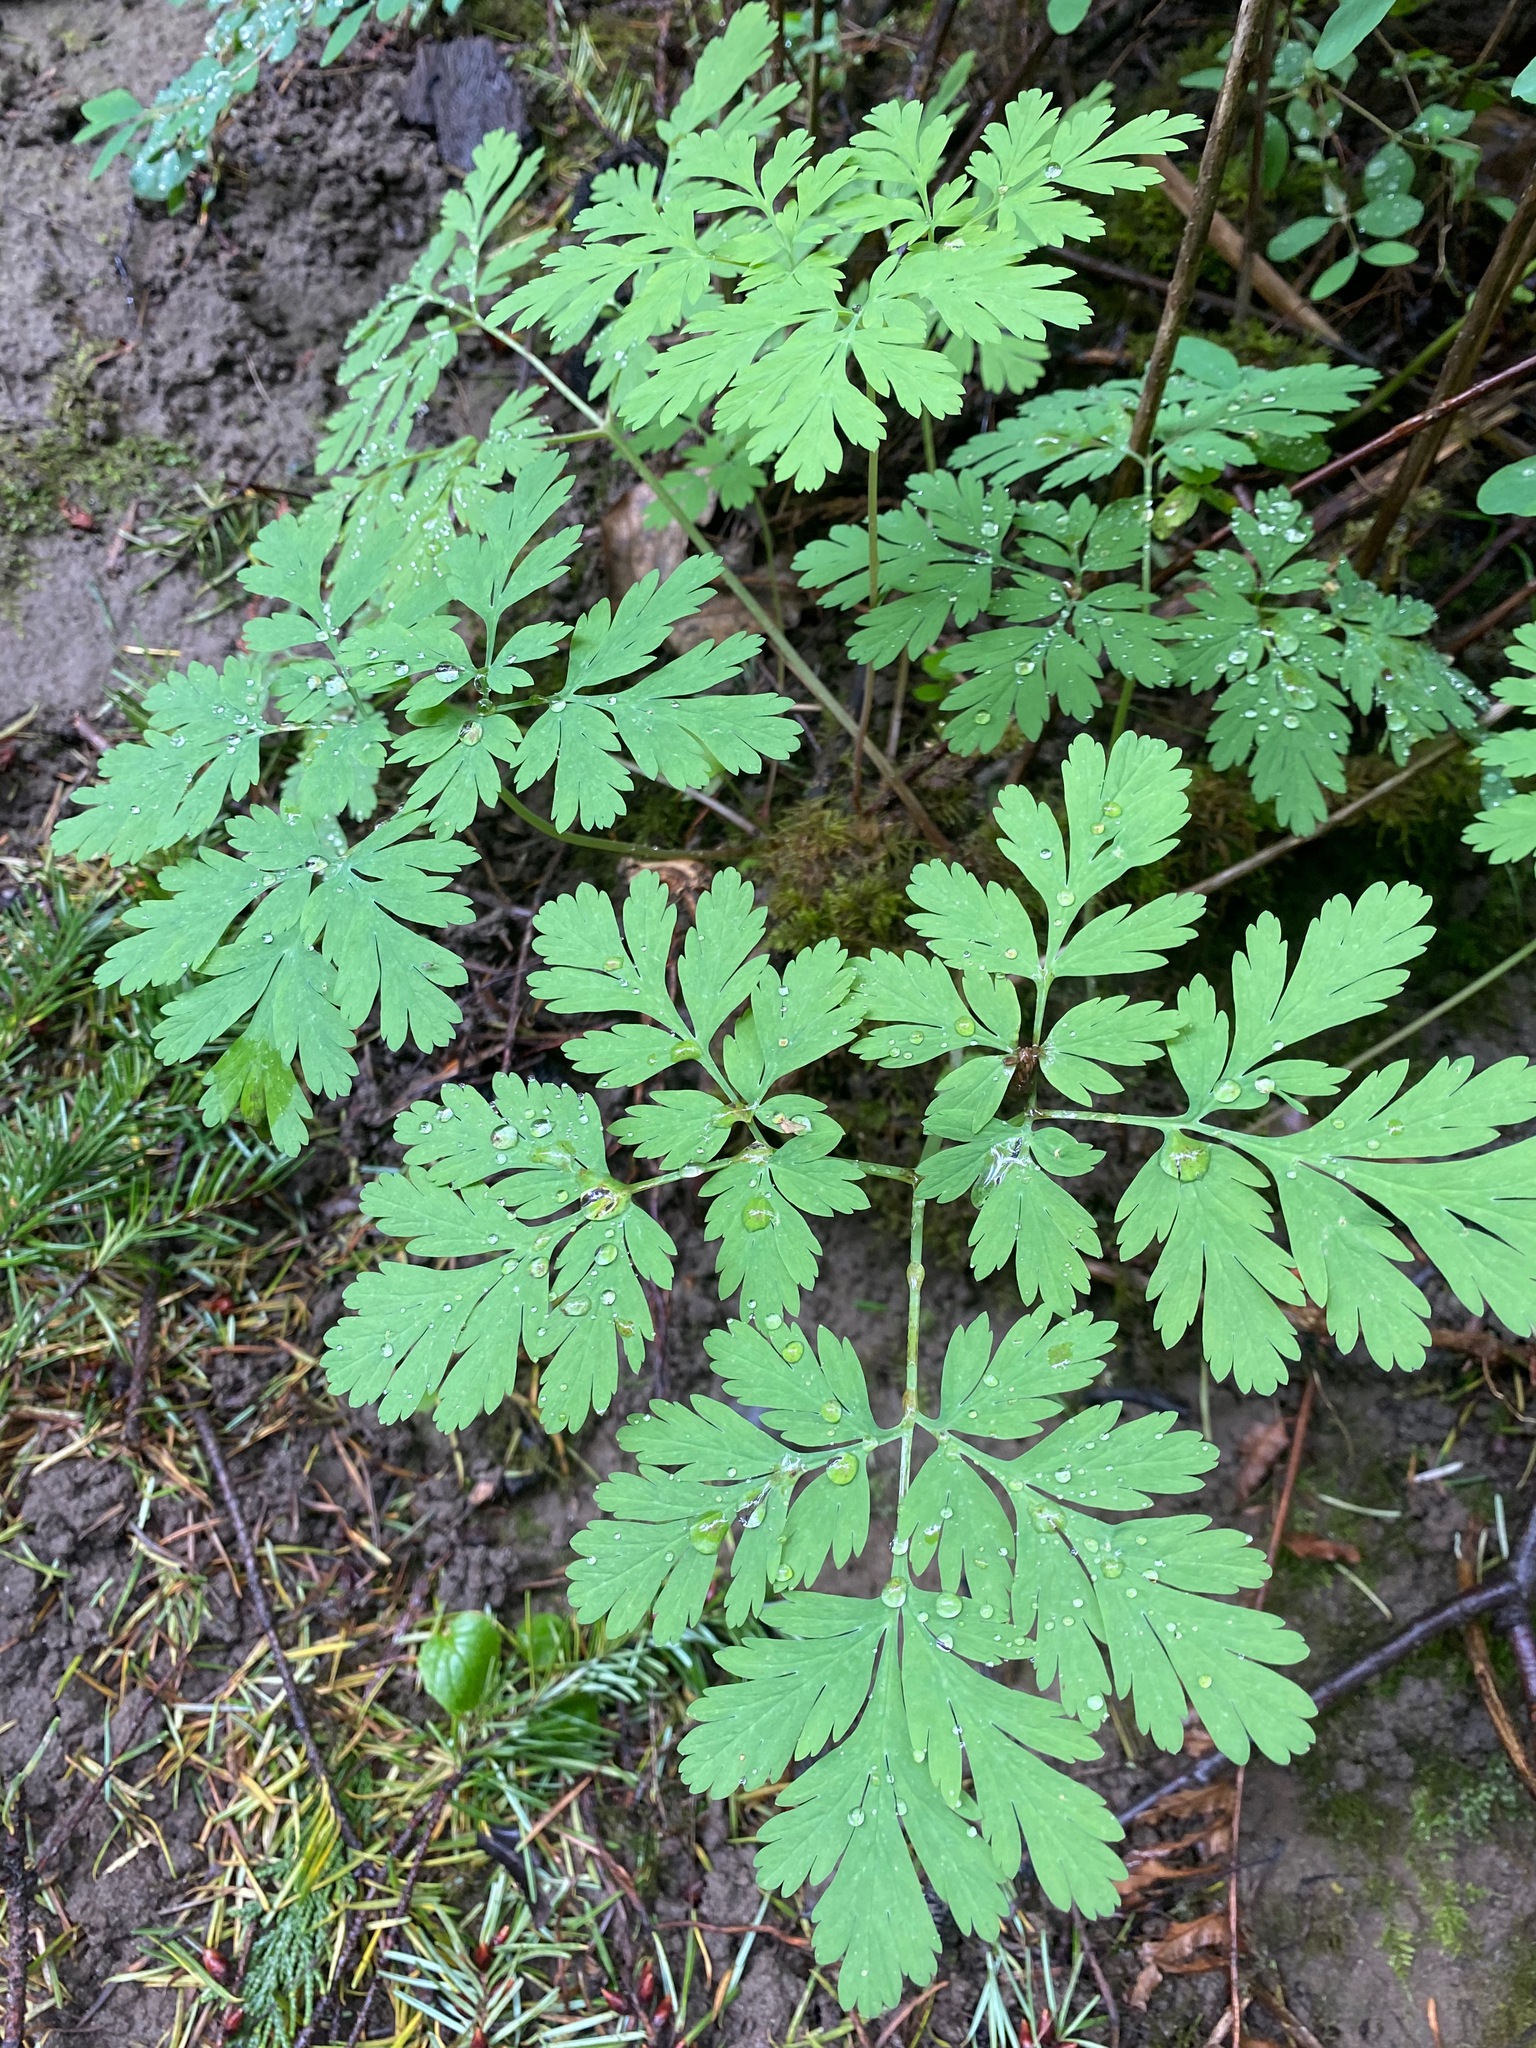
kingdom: Plantae
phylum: Tracheophyta
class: Magnoliopsida
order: Ranunculales
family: Papaveraceae
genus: Dicentra
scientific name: Dicentra formosa
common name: Bleeding-heart
